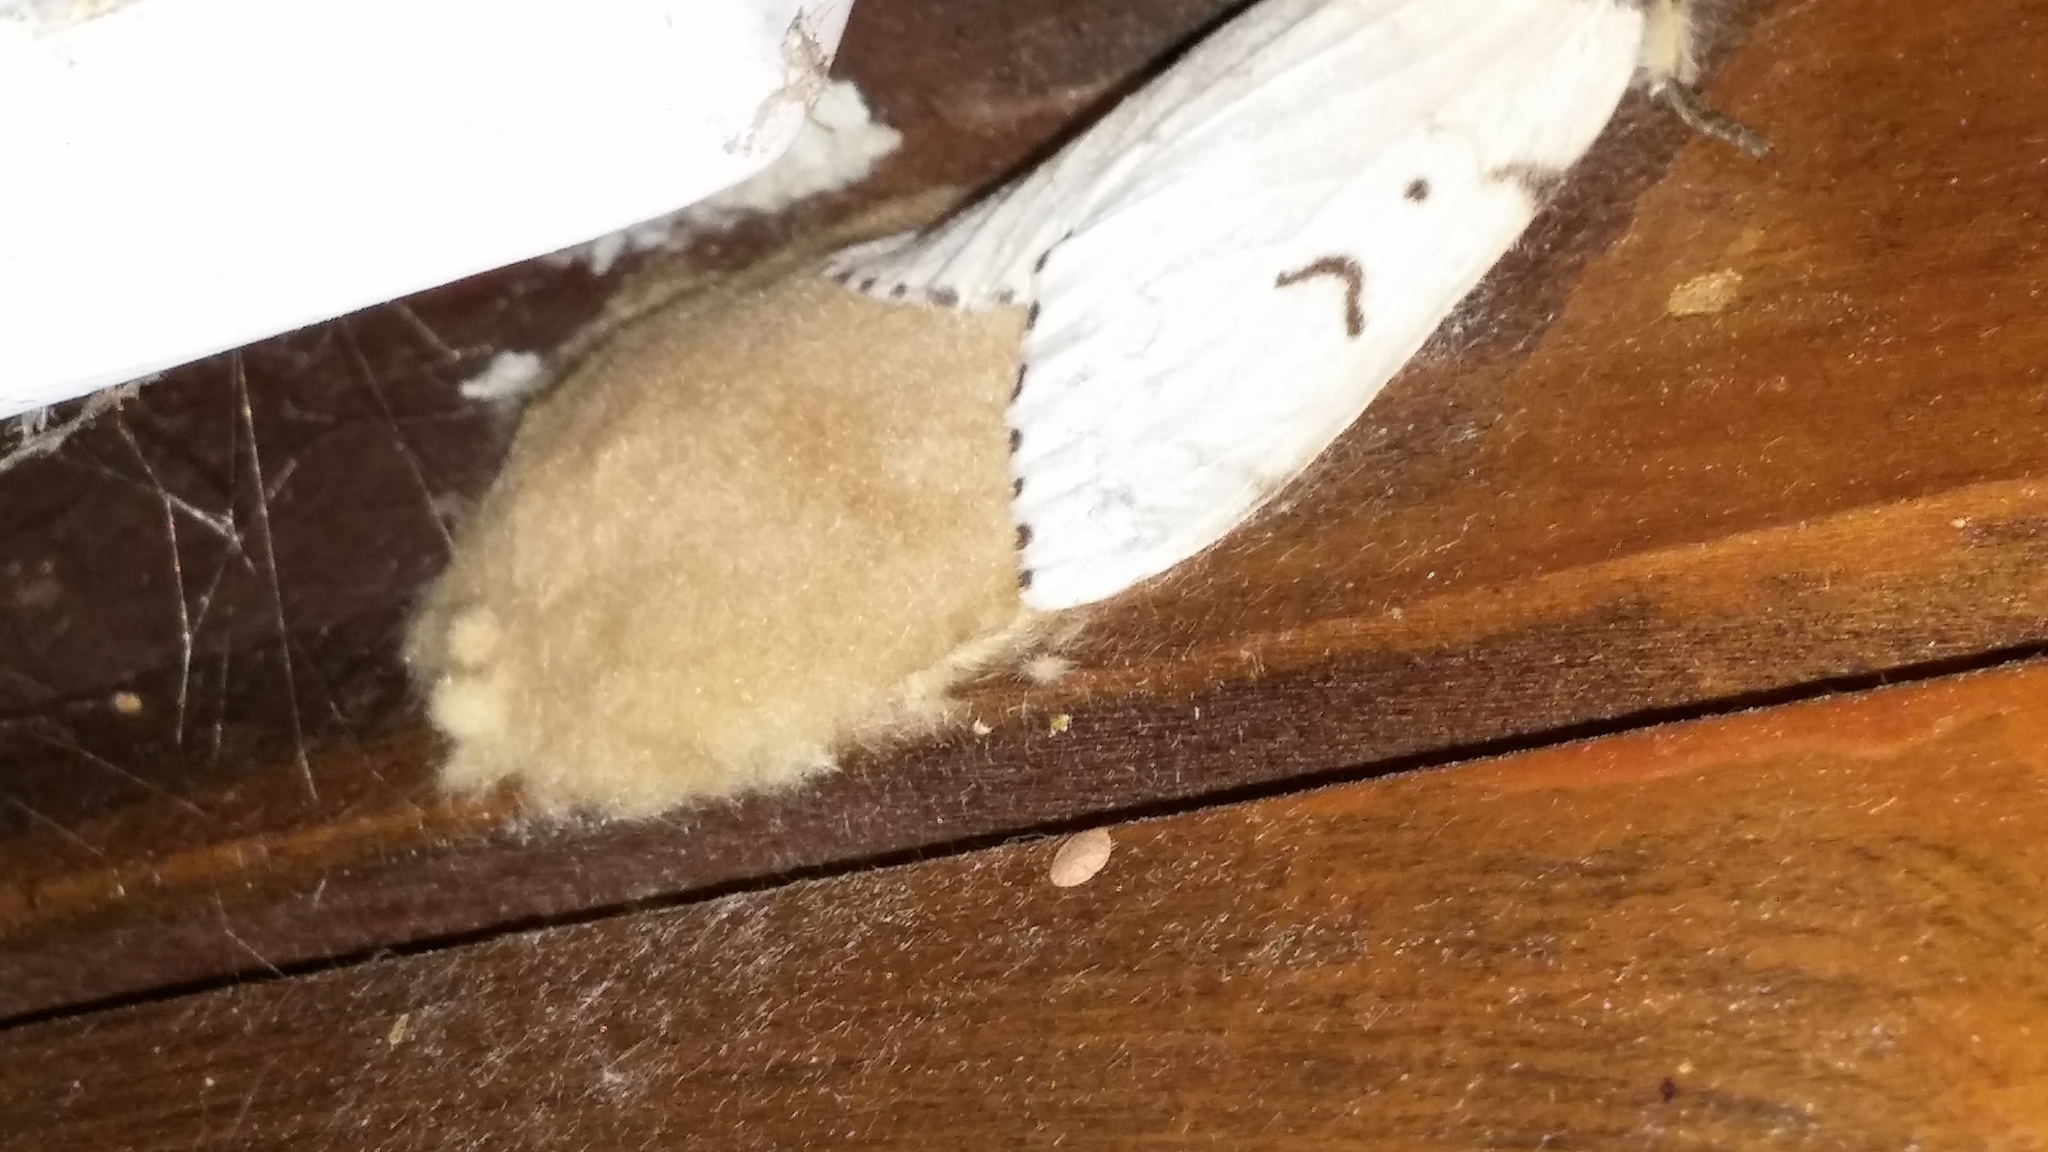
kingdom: Animalia
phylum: Arthropoda
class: Insecta
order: Lepidoptera
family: Erebidae
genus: Lymantria
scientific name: Lymantria dispar
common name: Gypsy moth
